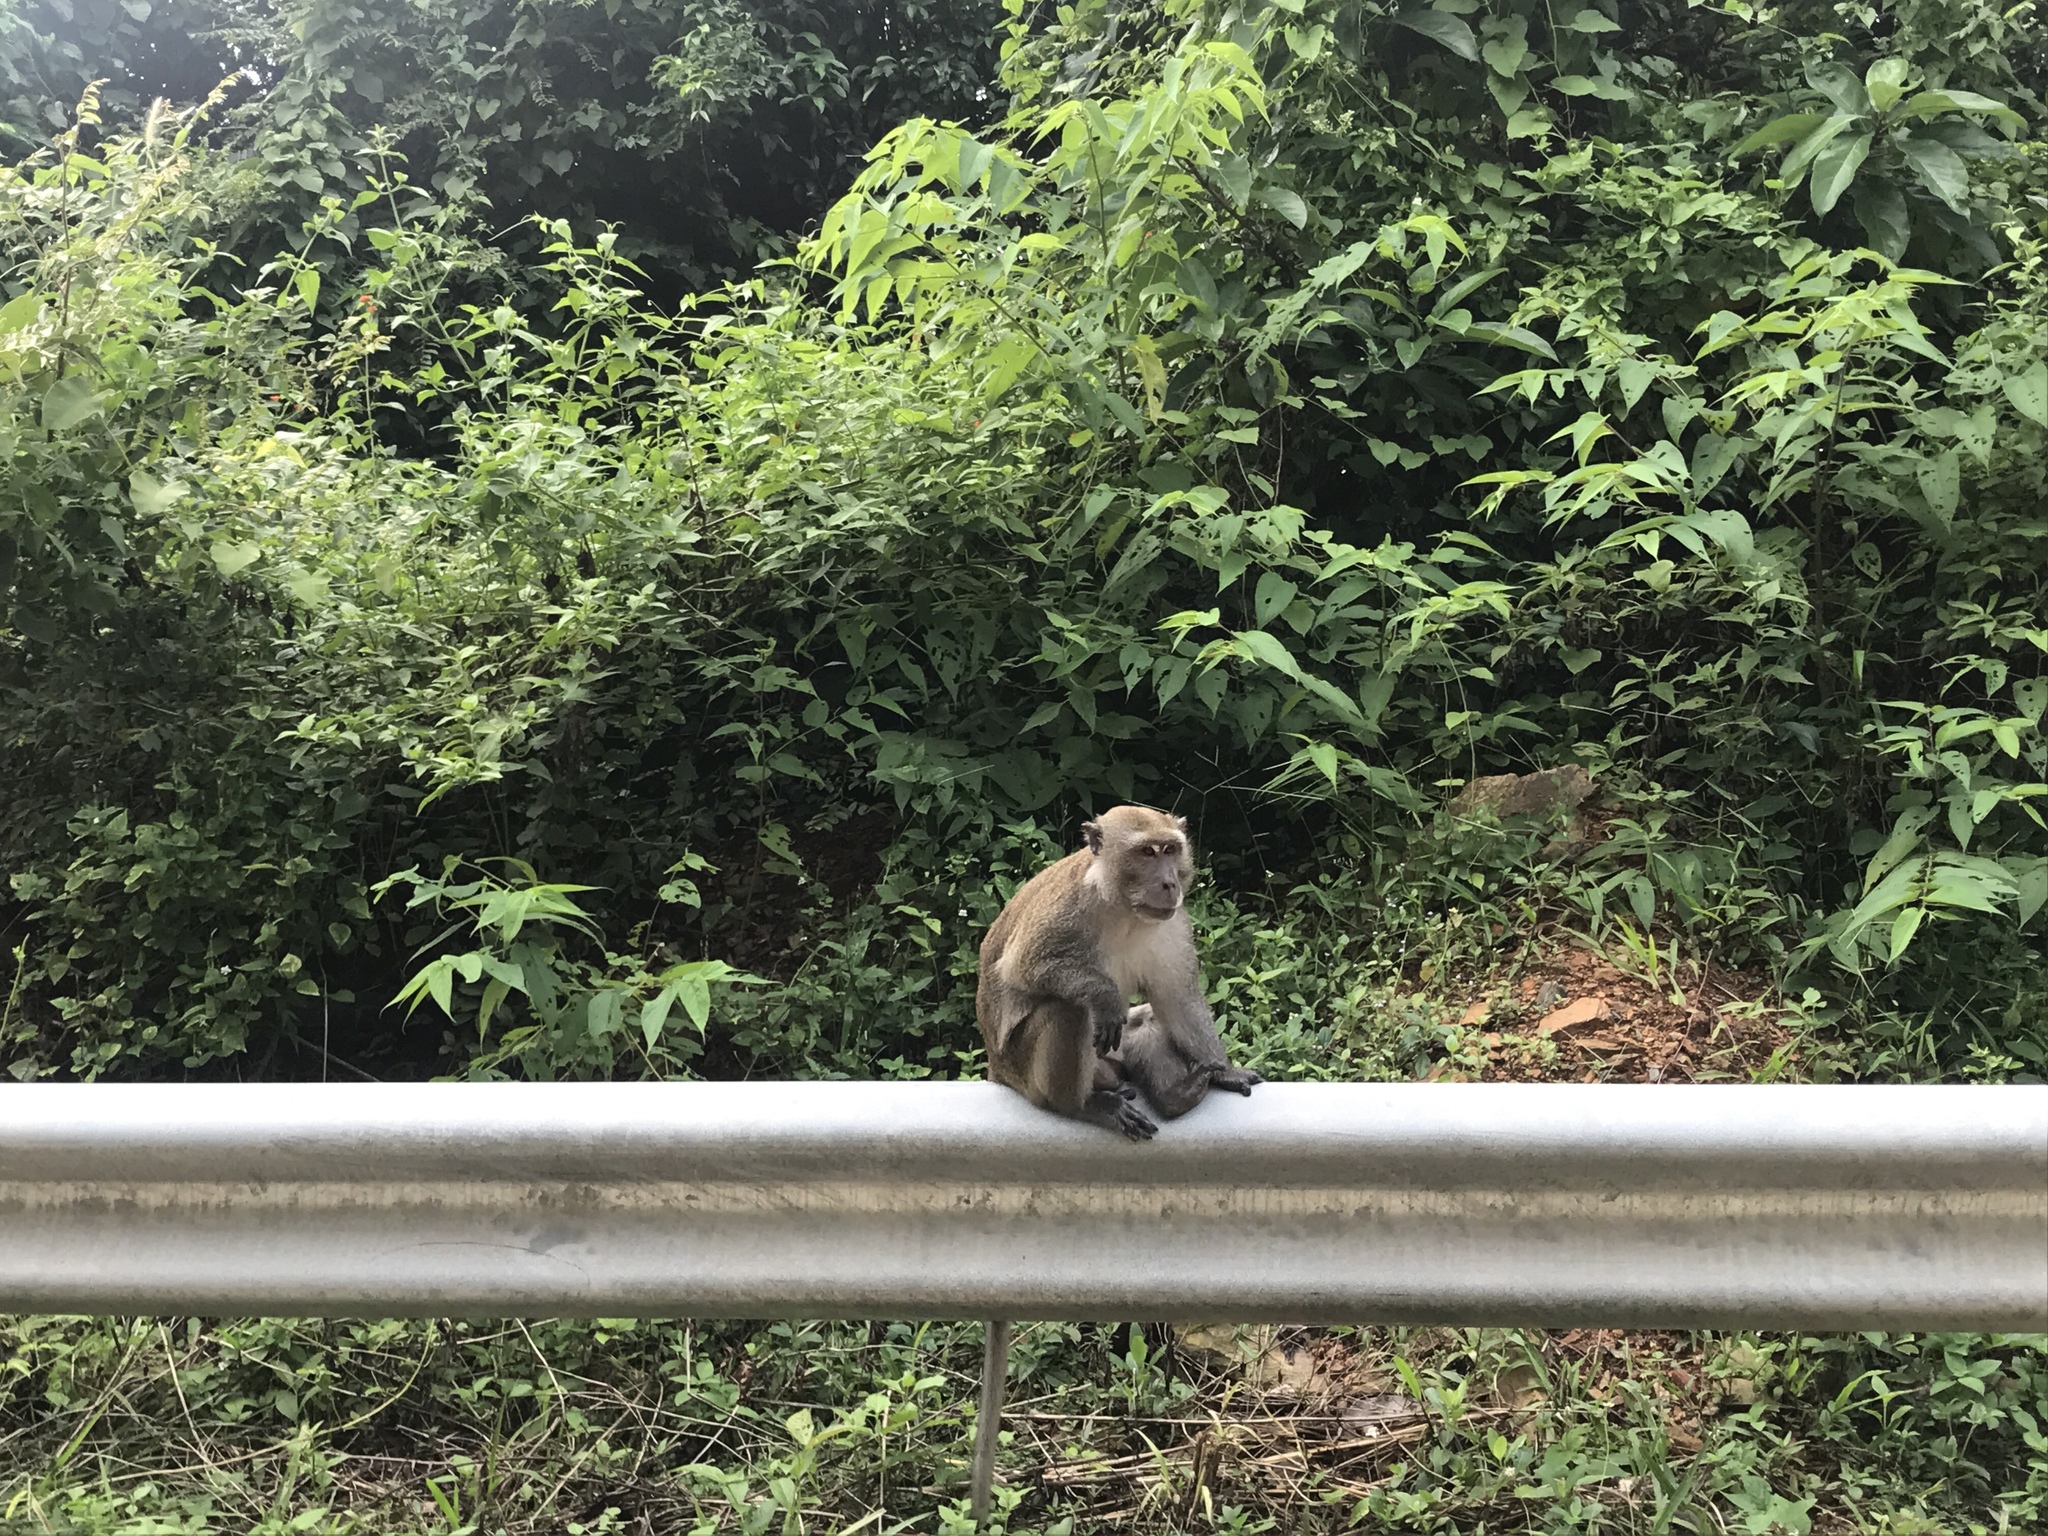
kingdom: Animalia
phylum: Chordata
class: Mammalia
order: Primates
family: Cercopithecidae
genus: Macaca
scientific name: Macaca fascicularis
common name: Crab-eating macaque
